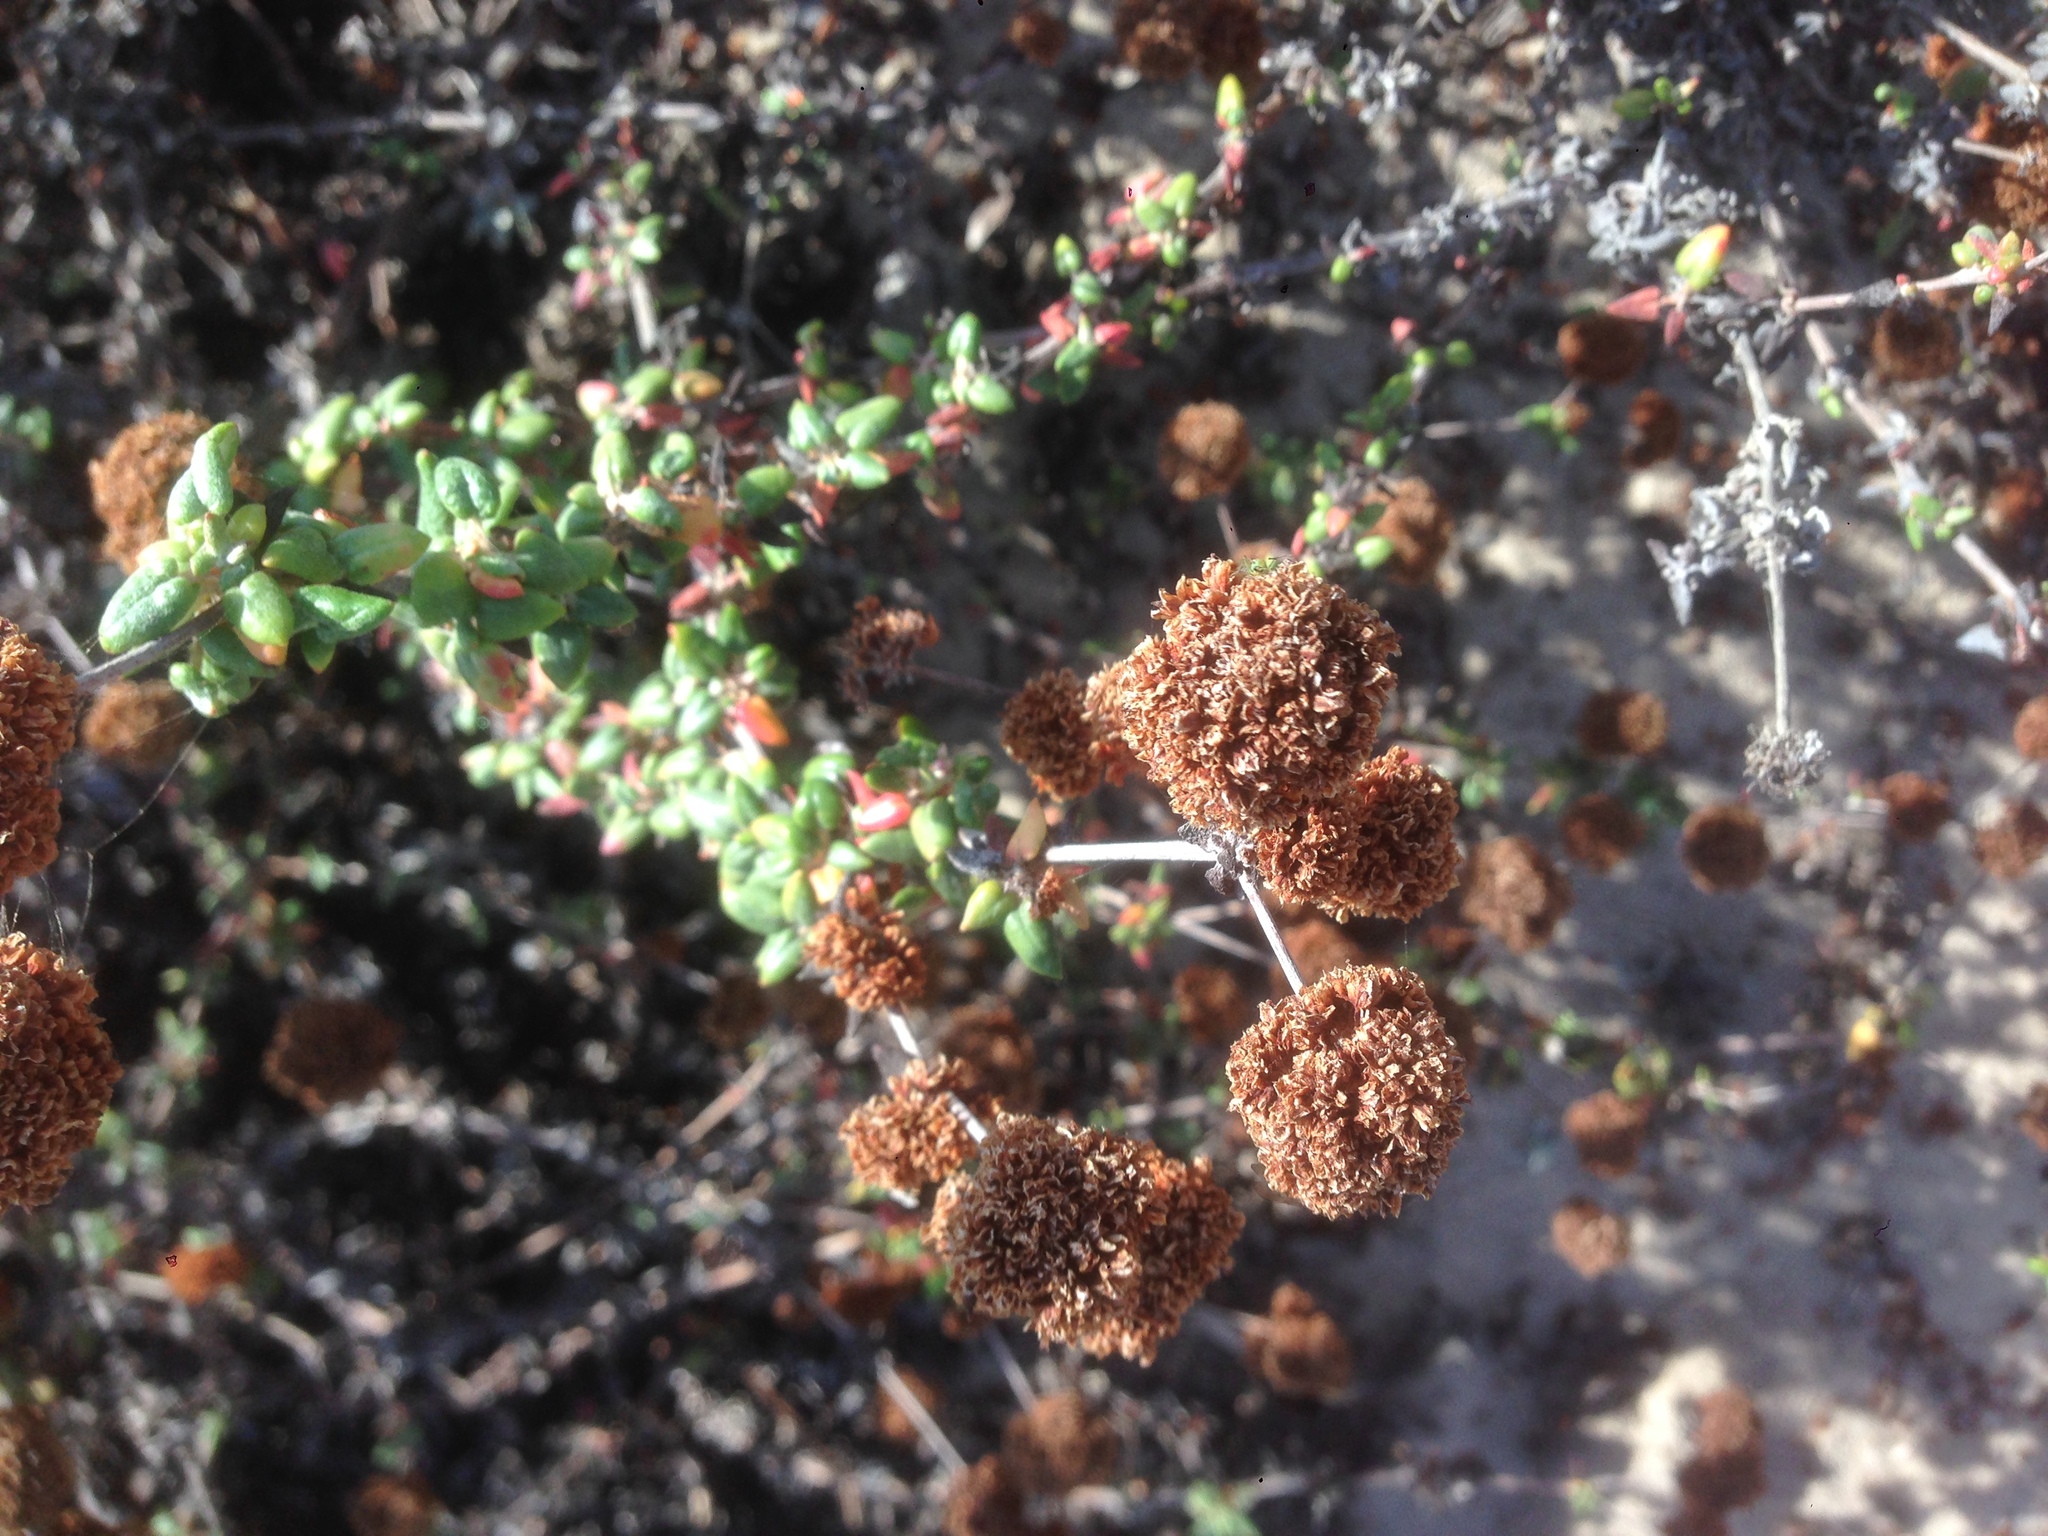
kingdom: Plantae
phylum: Tracheophyta
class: Magnoliopsida
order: Caryophyllales
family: Polygonaceae
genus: Eriogonum
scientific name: Eriogonum parvifolium
